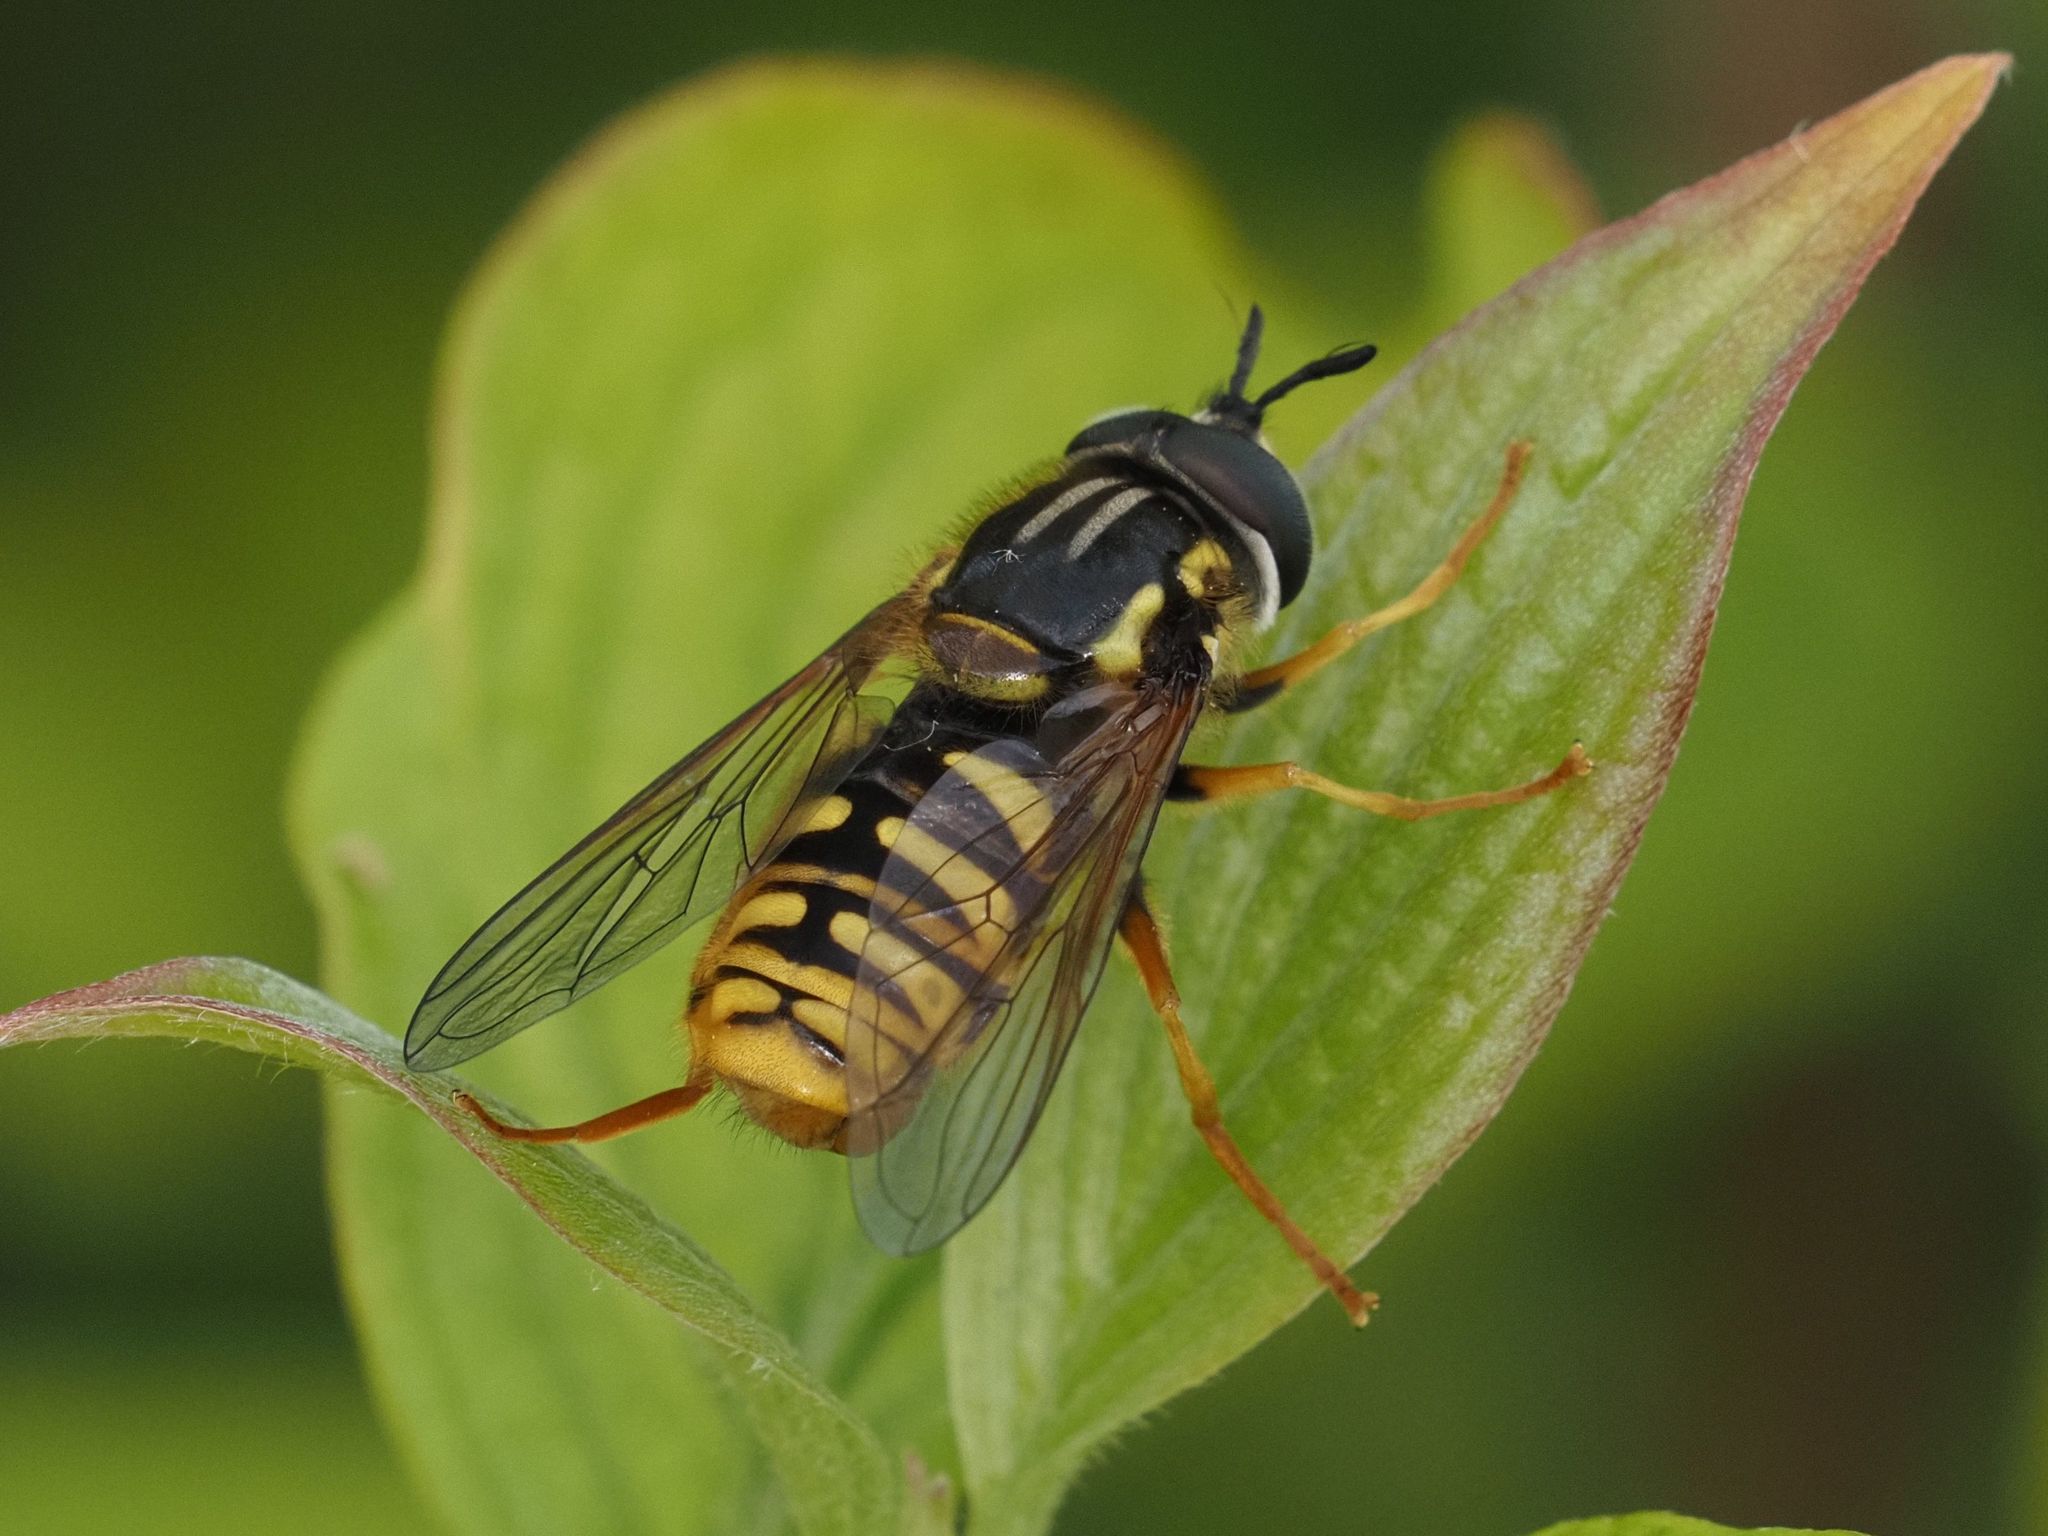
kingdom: Animalia
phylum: Arthropoda
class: Insecta
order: Diptera
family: Syrphidae
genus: Chrysotoxum
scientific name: Chrysotoxum cautum
